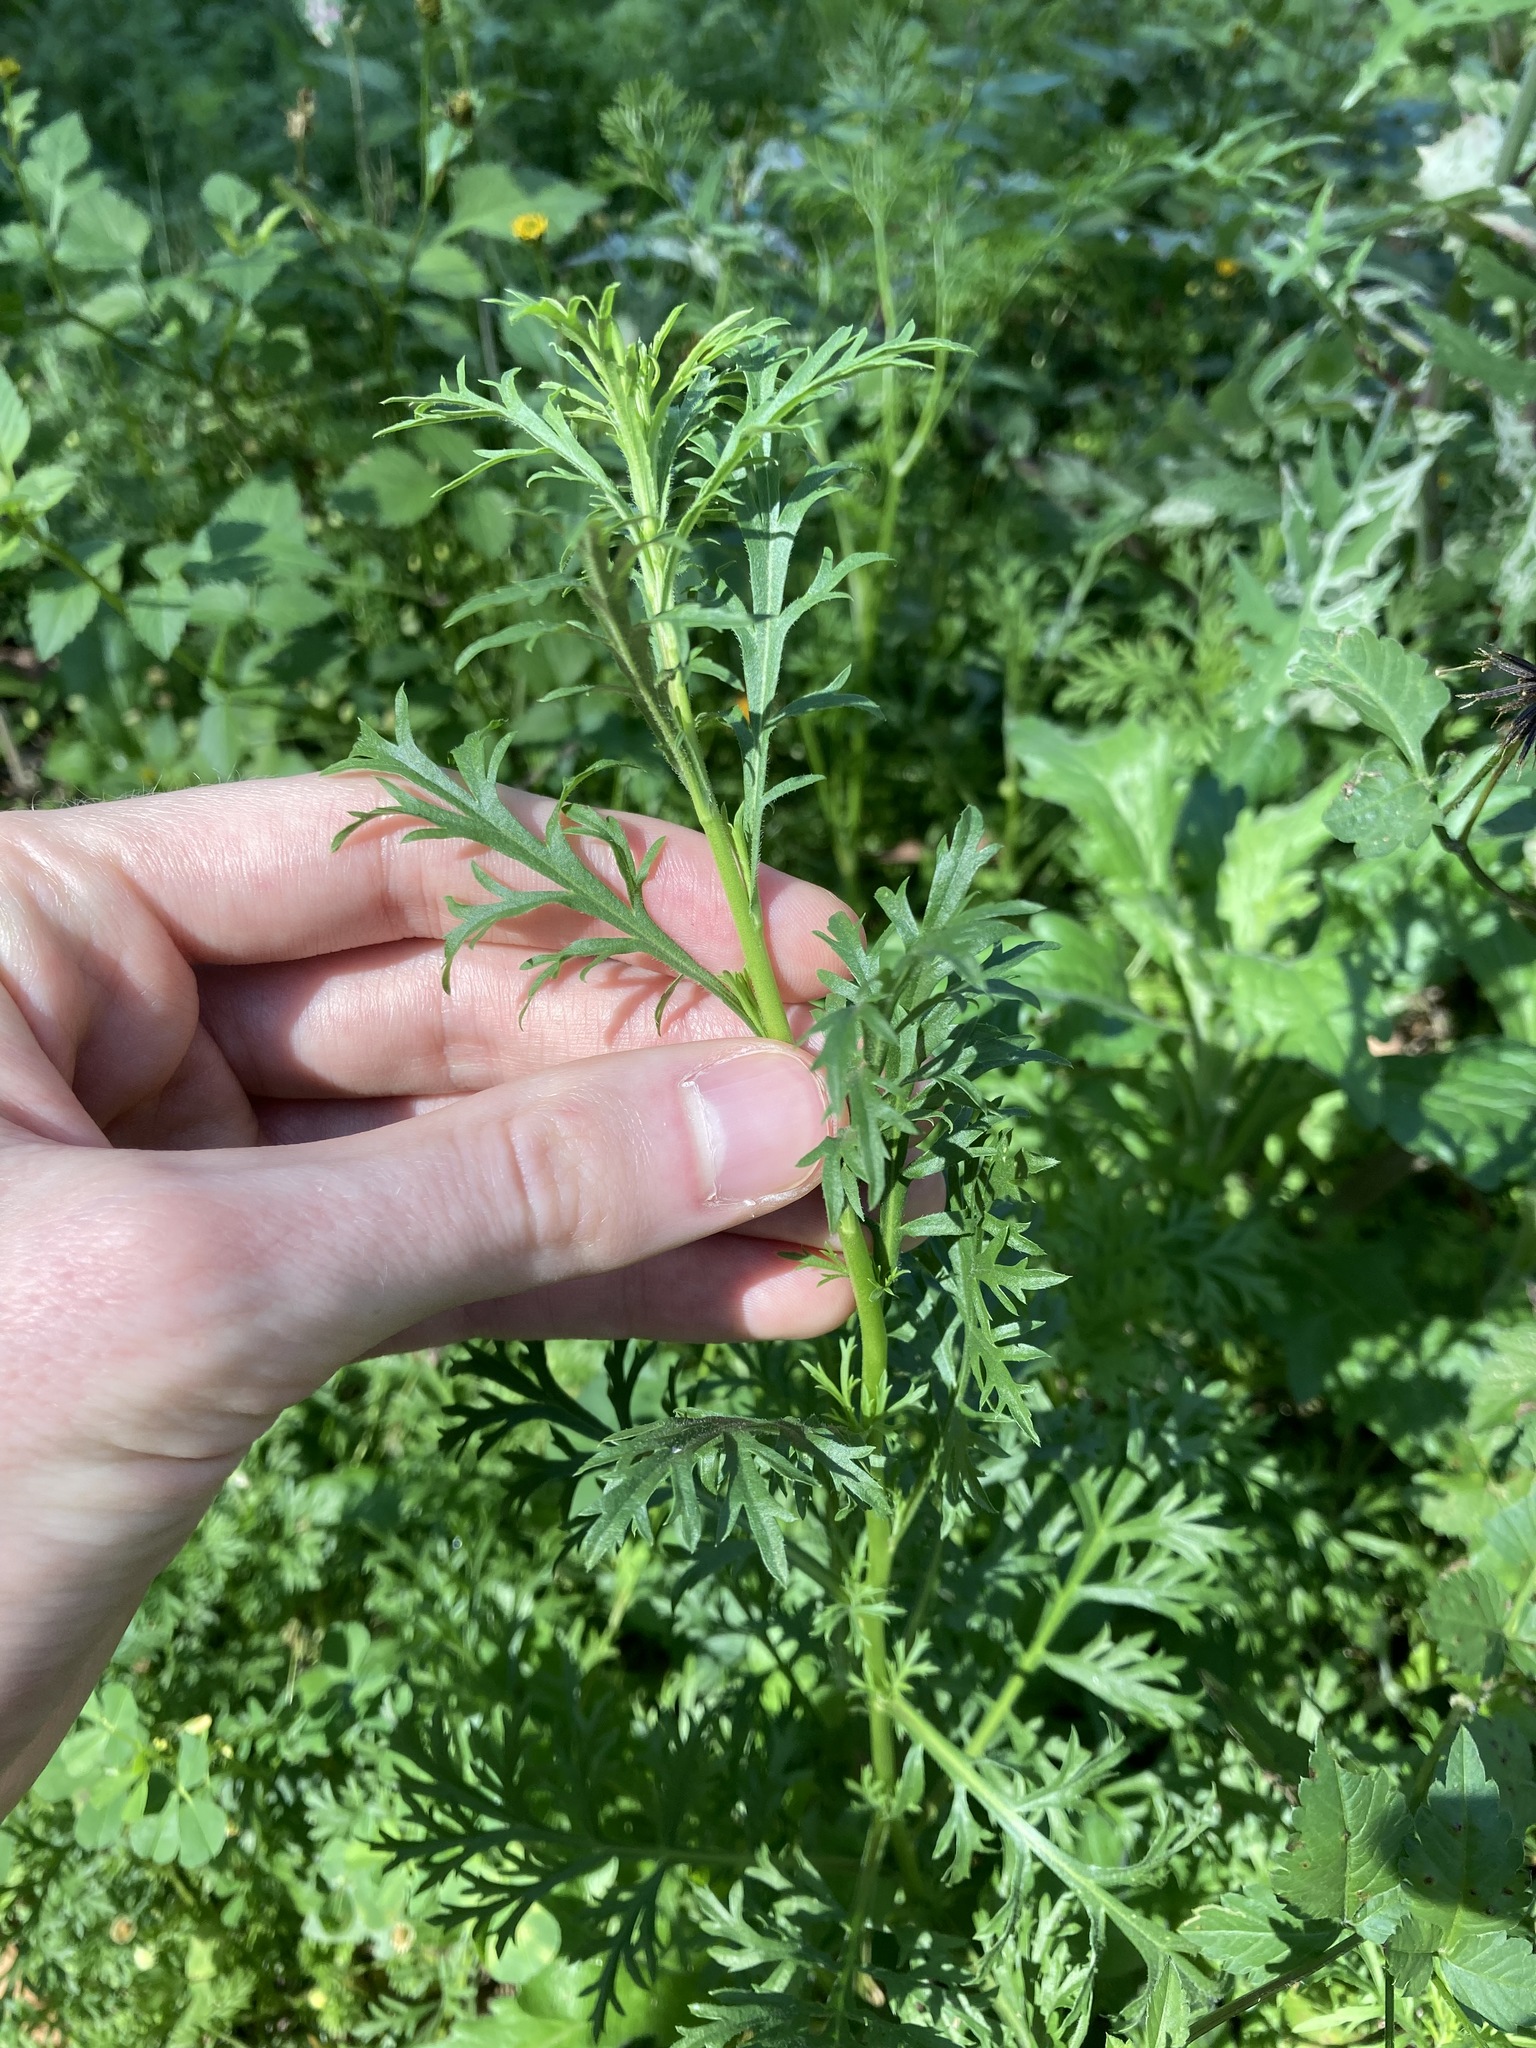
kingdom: Plantae
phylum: Tracheophyta
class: Magnoliopsida
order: Brassicales
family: Brassicaceae
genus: Lepidium
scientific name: Lepidium bonariense
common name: Argentine pepperwort
